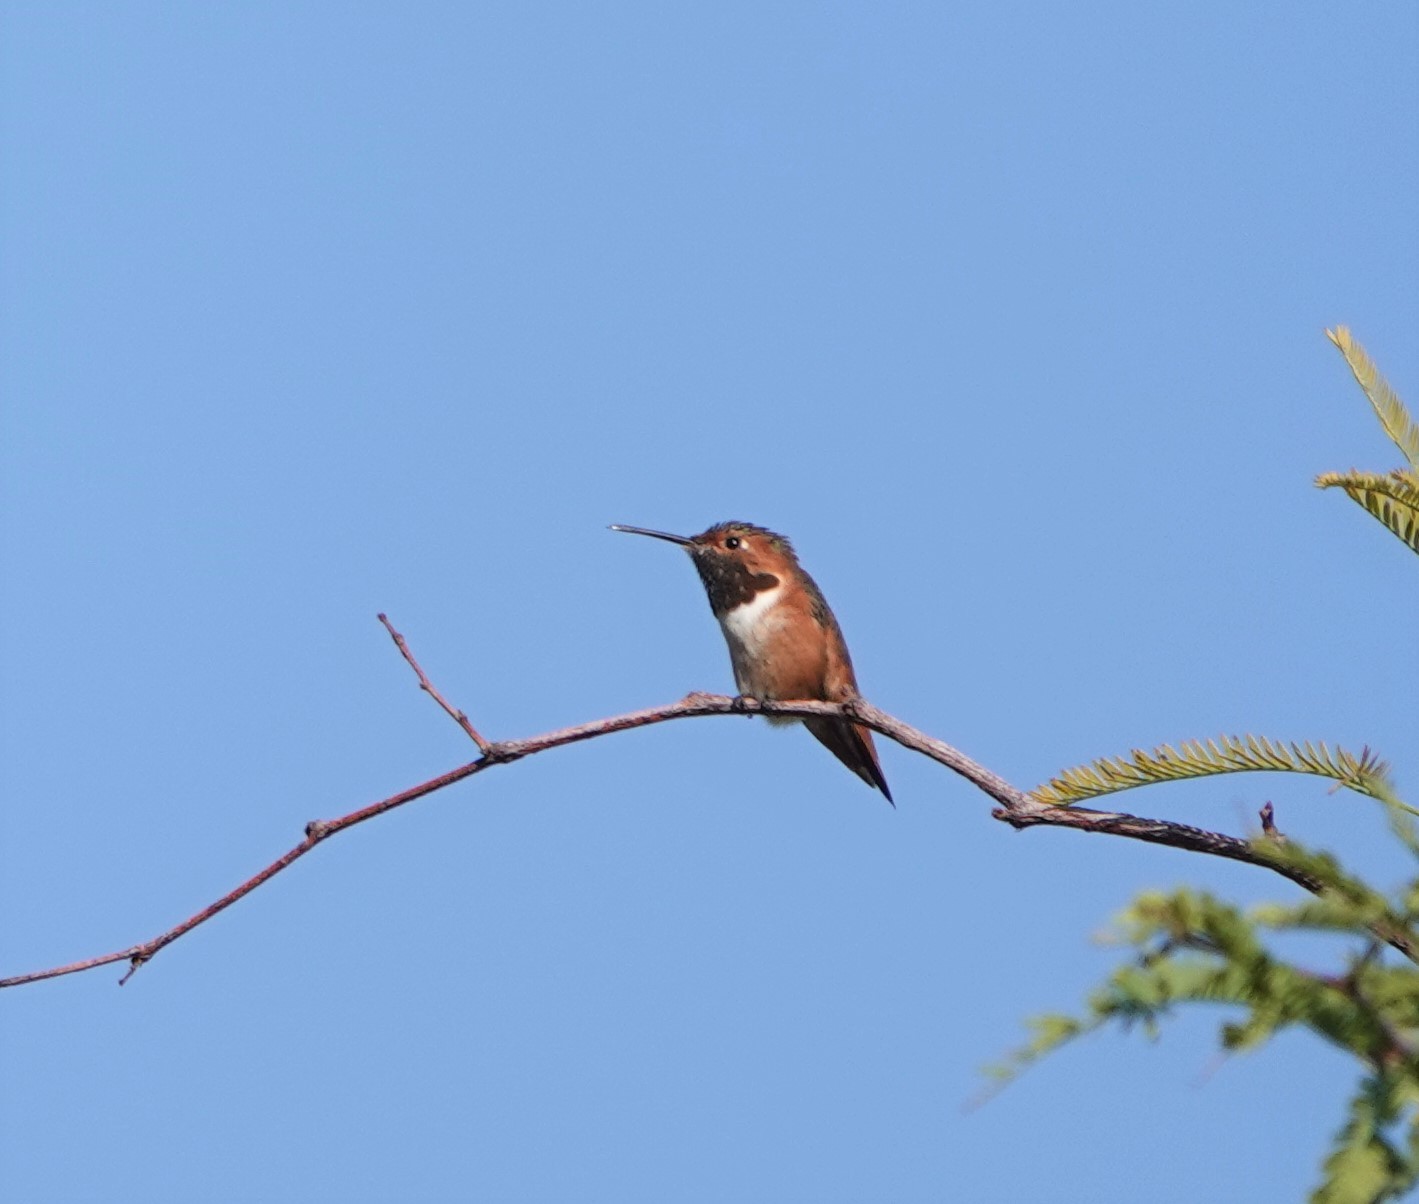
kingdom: Animalia
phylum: Chordata
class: Aves
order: Apodiformes
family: Trochilidae
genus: Selasphorus
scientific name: Selasphorus sasin
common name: Allen's hummingbird
